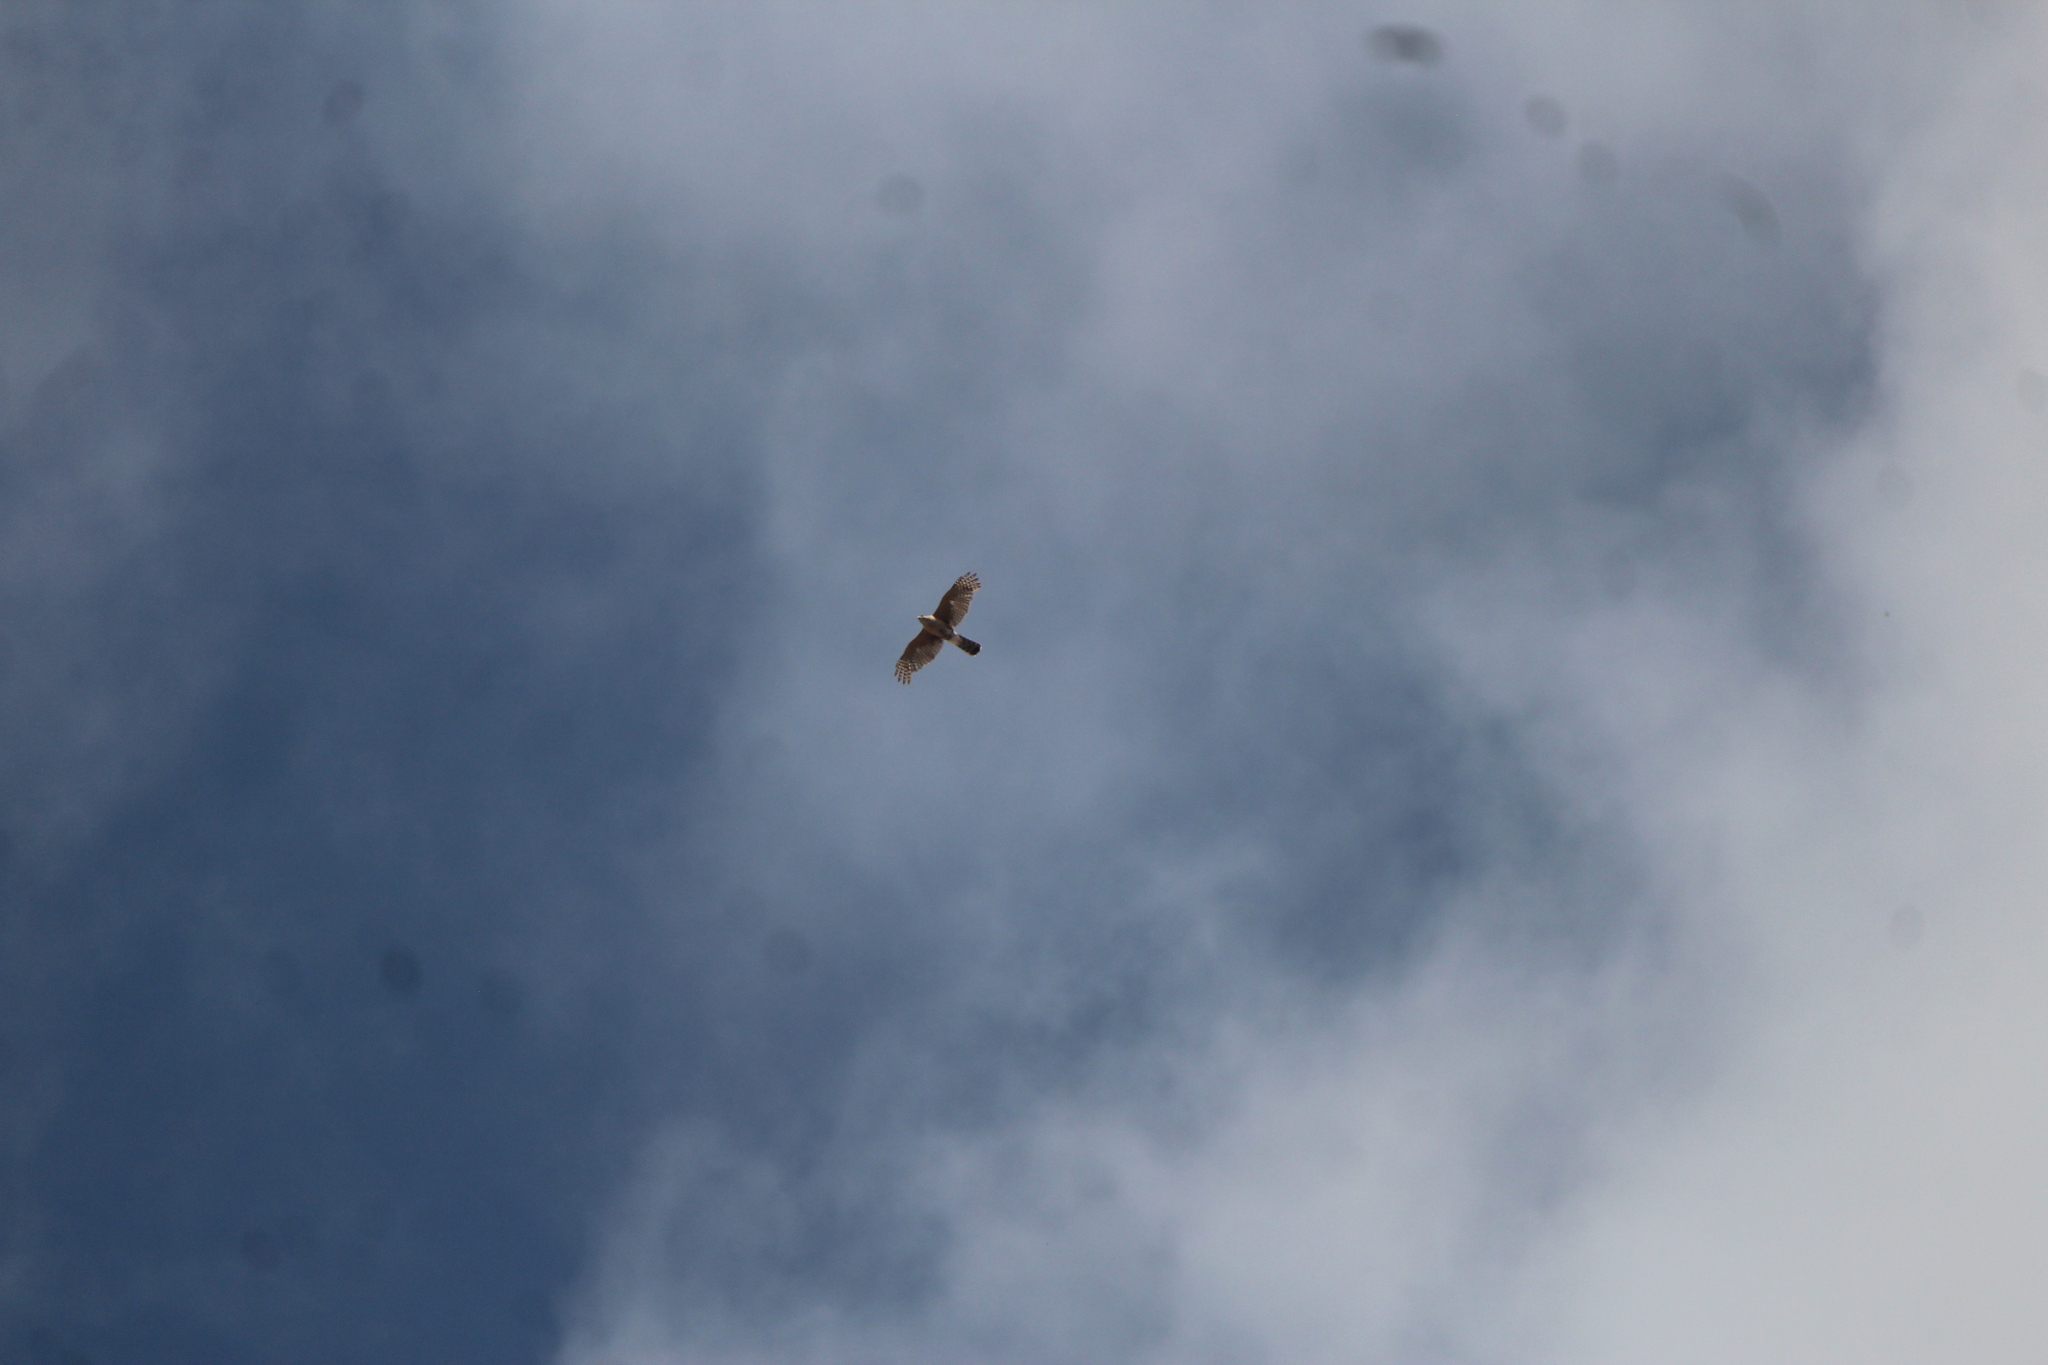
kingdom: Animalia
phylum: Chordata
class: Aves
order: Accipitriformes
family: Accipitridae
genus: Accipiter
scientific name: Accipiter cooperii
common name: Cooper's hawk
